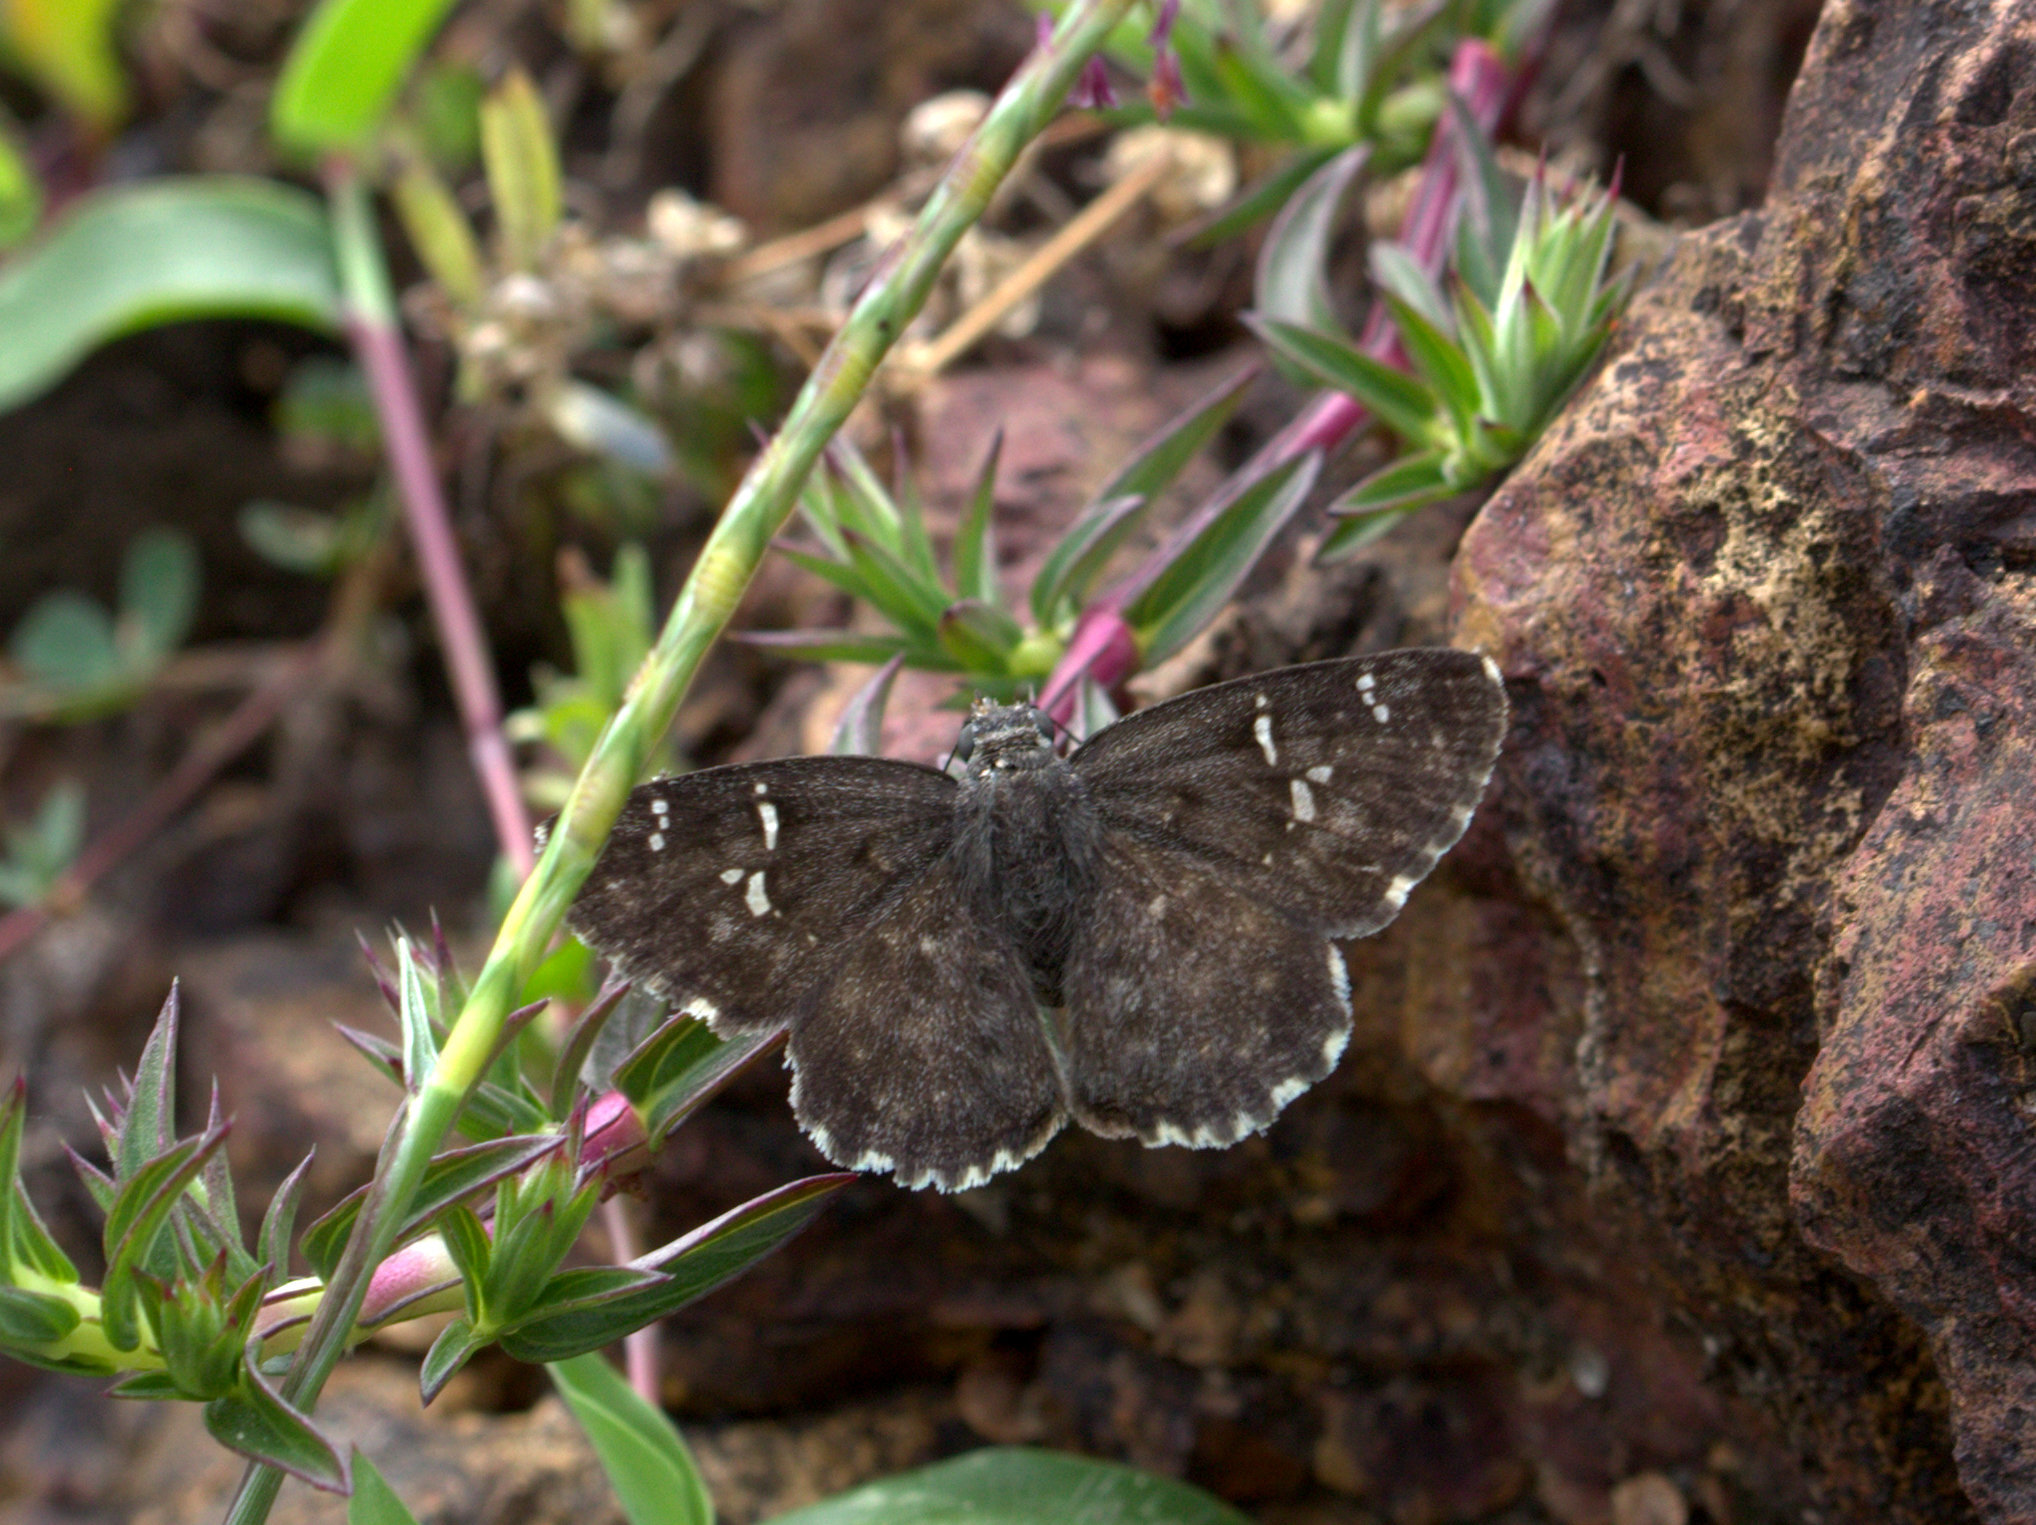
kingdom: Animalia
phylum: Arthropoda
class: Insecta
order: Lepidoptera
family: Hesperiidae
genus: Sarangesa
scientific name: Sarangesa purendra
